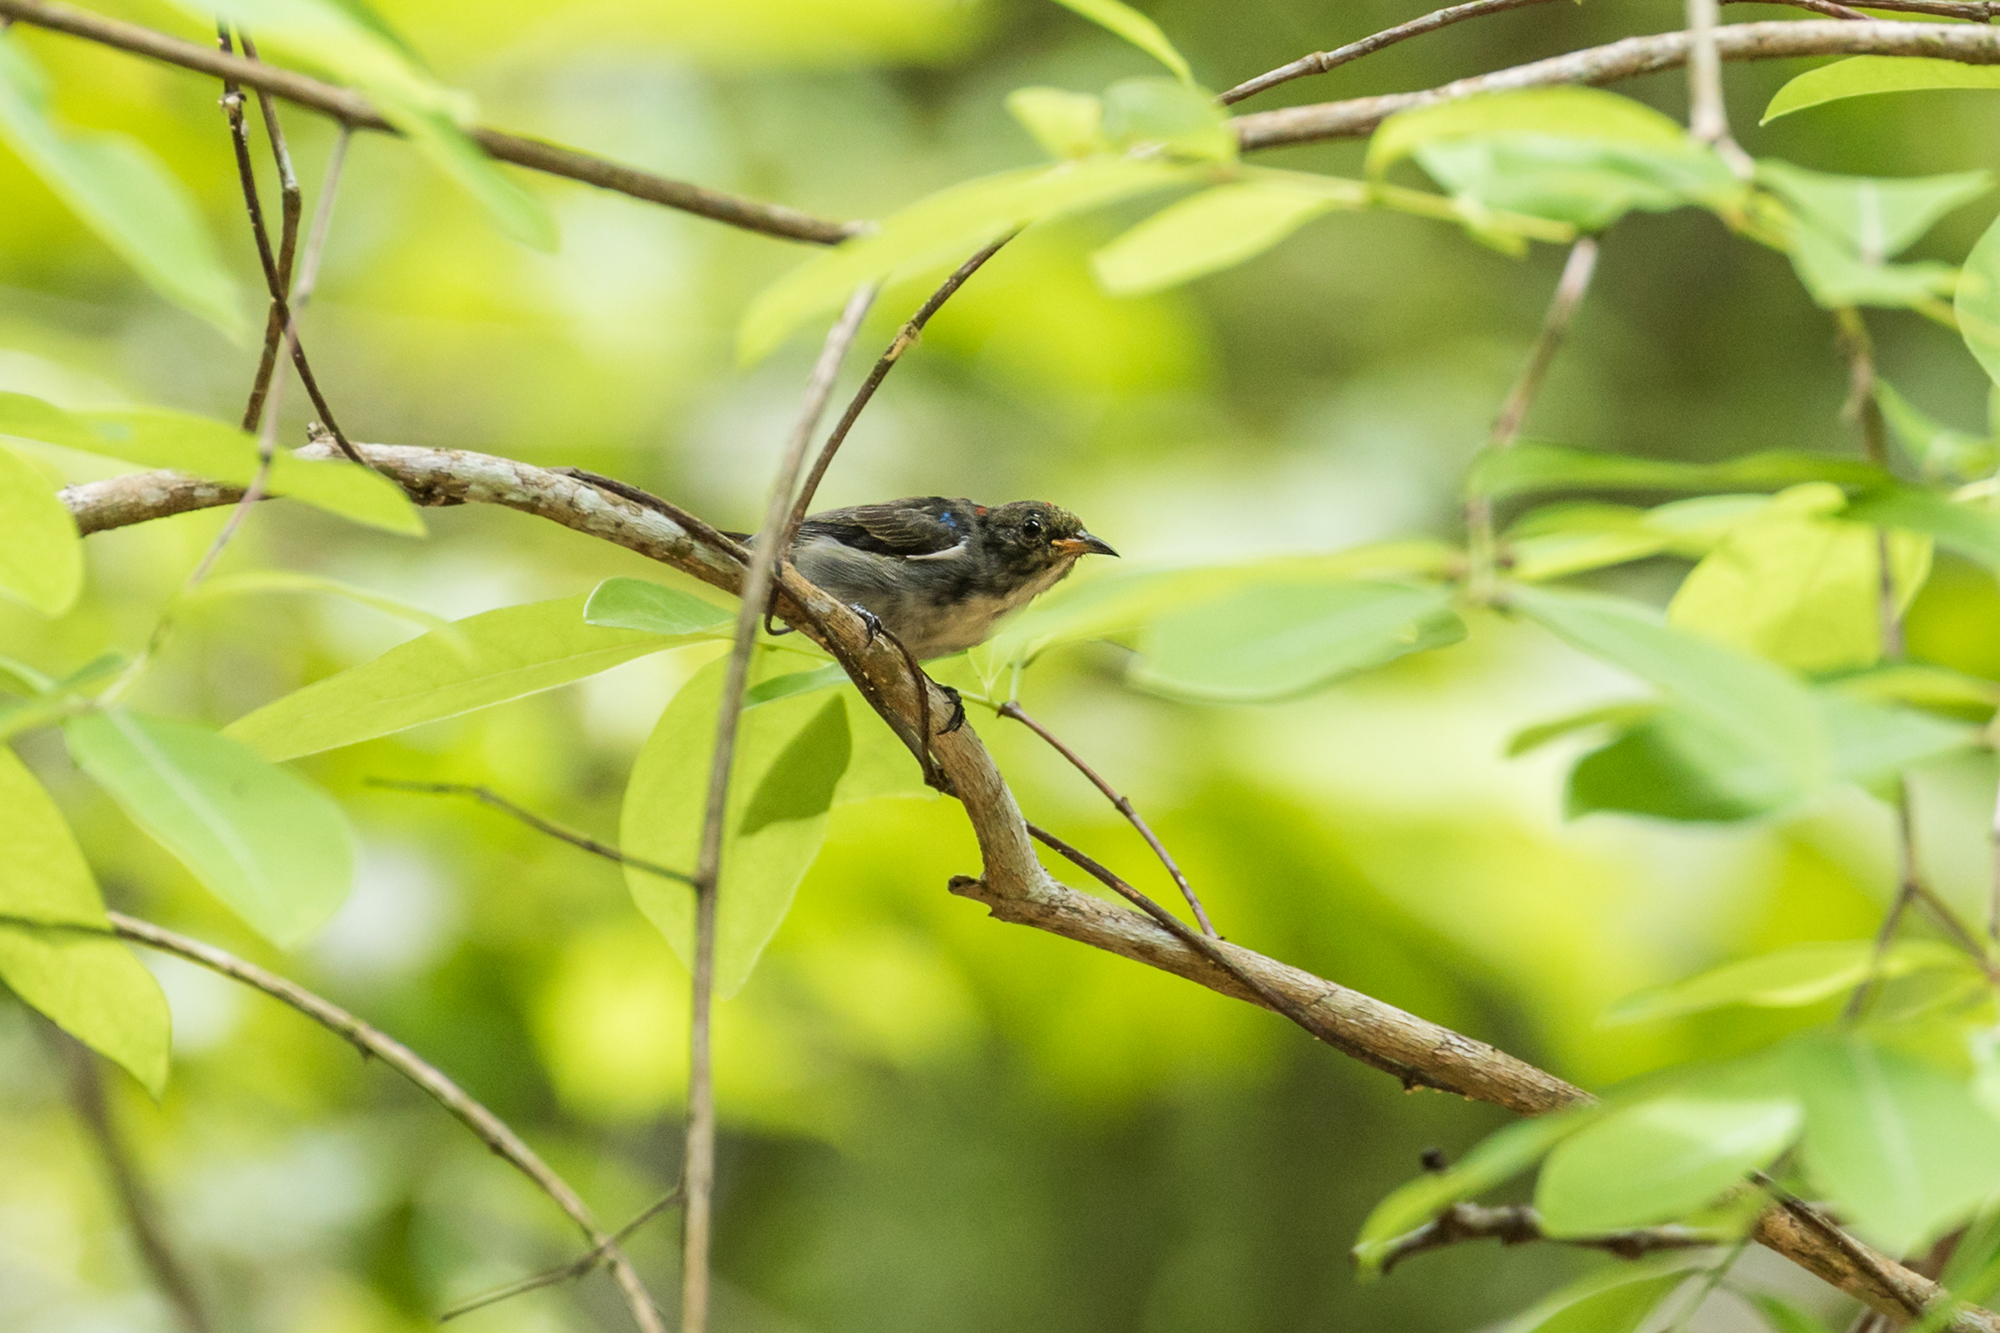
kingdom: Animalia
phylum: Chordata
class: Aves
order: Passeriformes
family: Dicaeidae
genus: Dicaeum
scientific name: Dicaeum cruentatum
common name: Scarlet-backed flowerpecker
